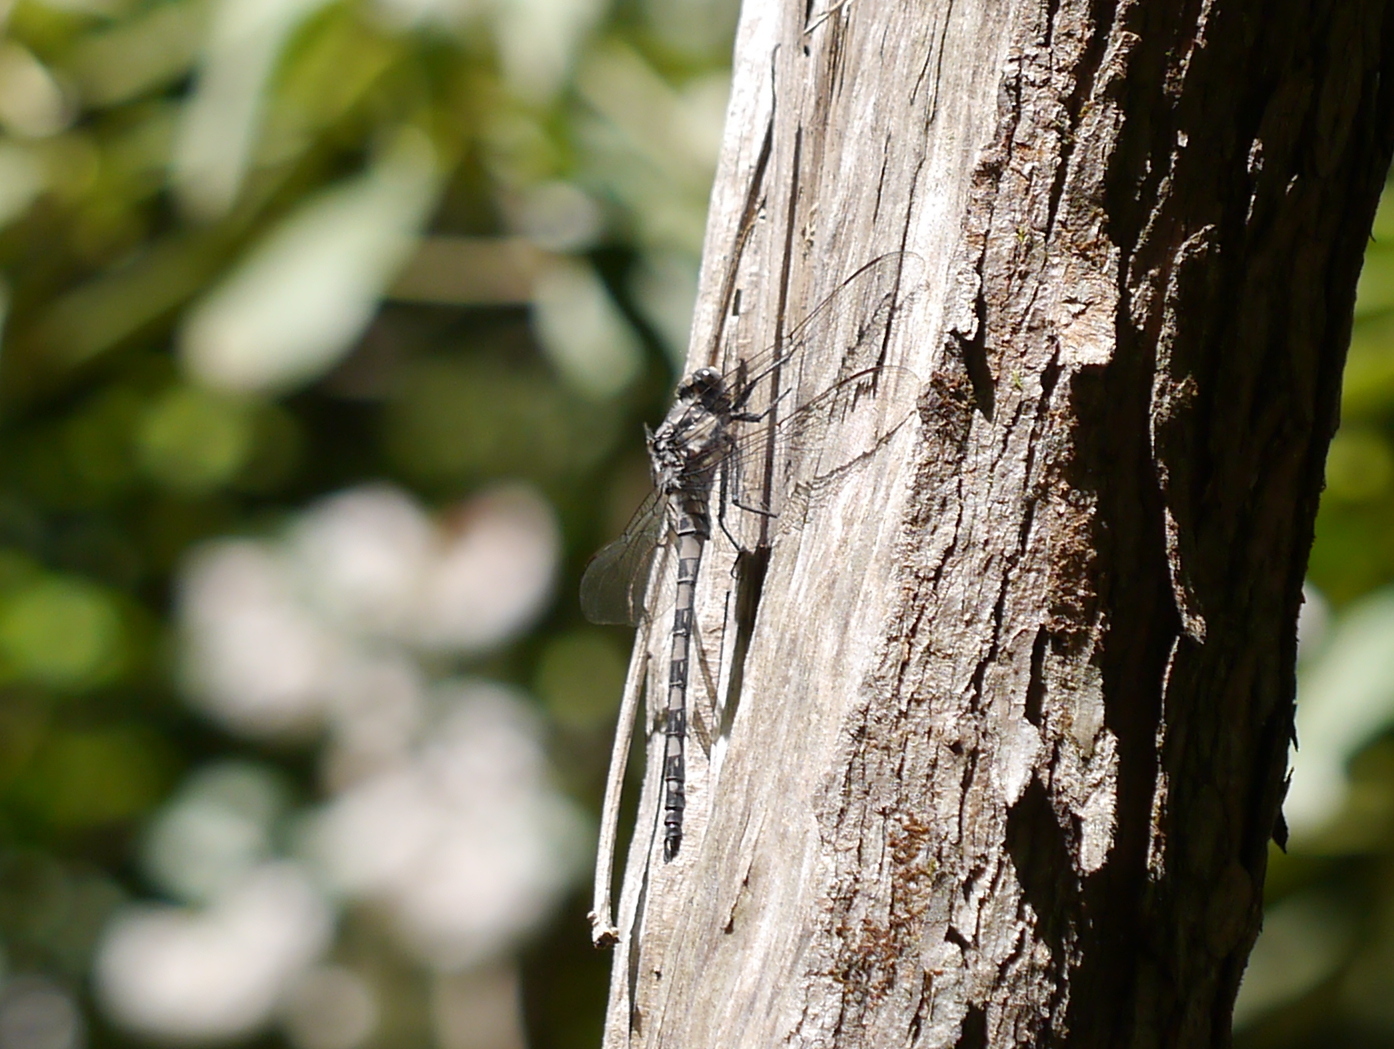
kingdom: Animalia
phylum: Arthropoda
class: Insecta
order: Odonata
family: Petaluridae
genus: Tachopteryx
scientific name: Tachopteryx thoreyi
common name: Gray petaltail
